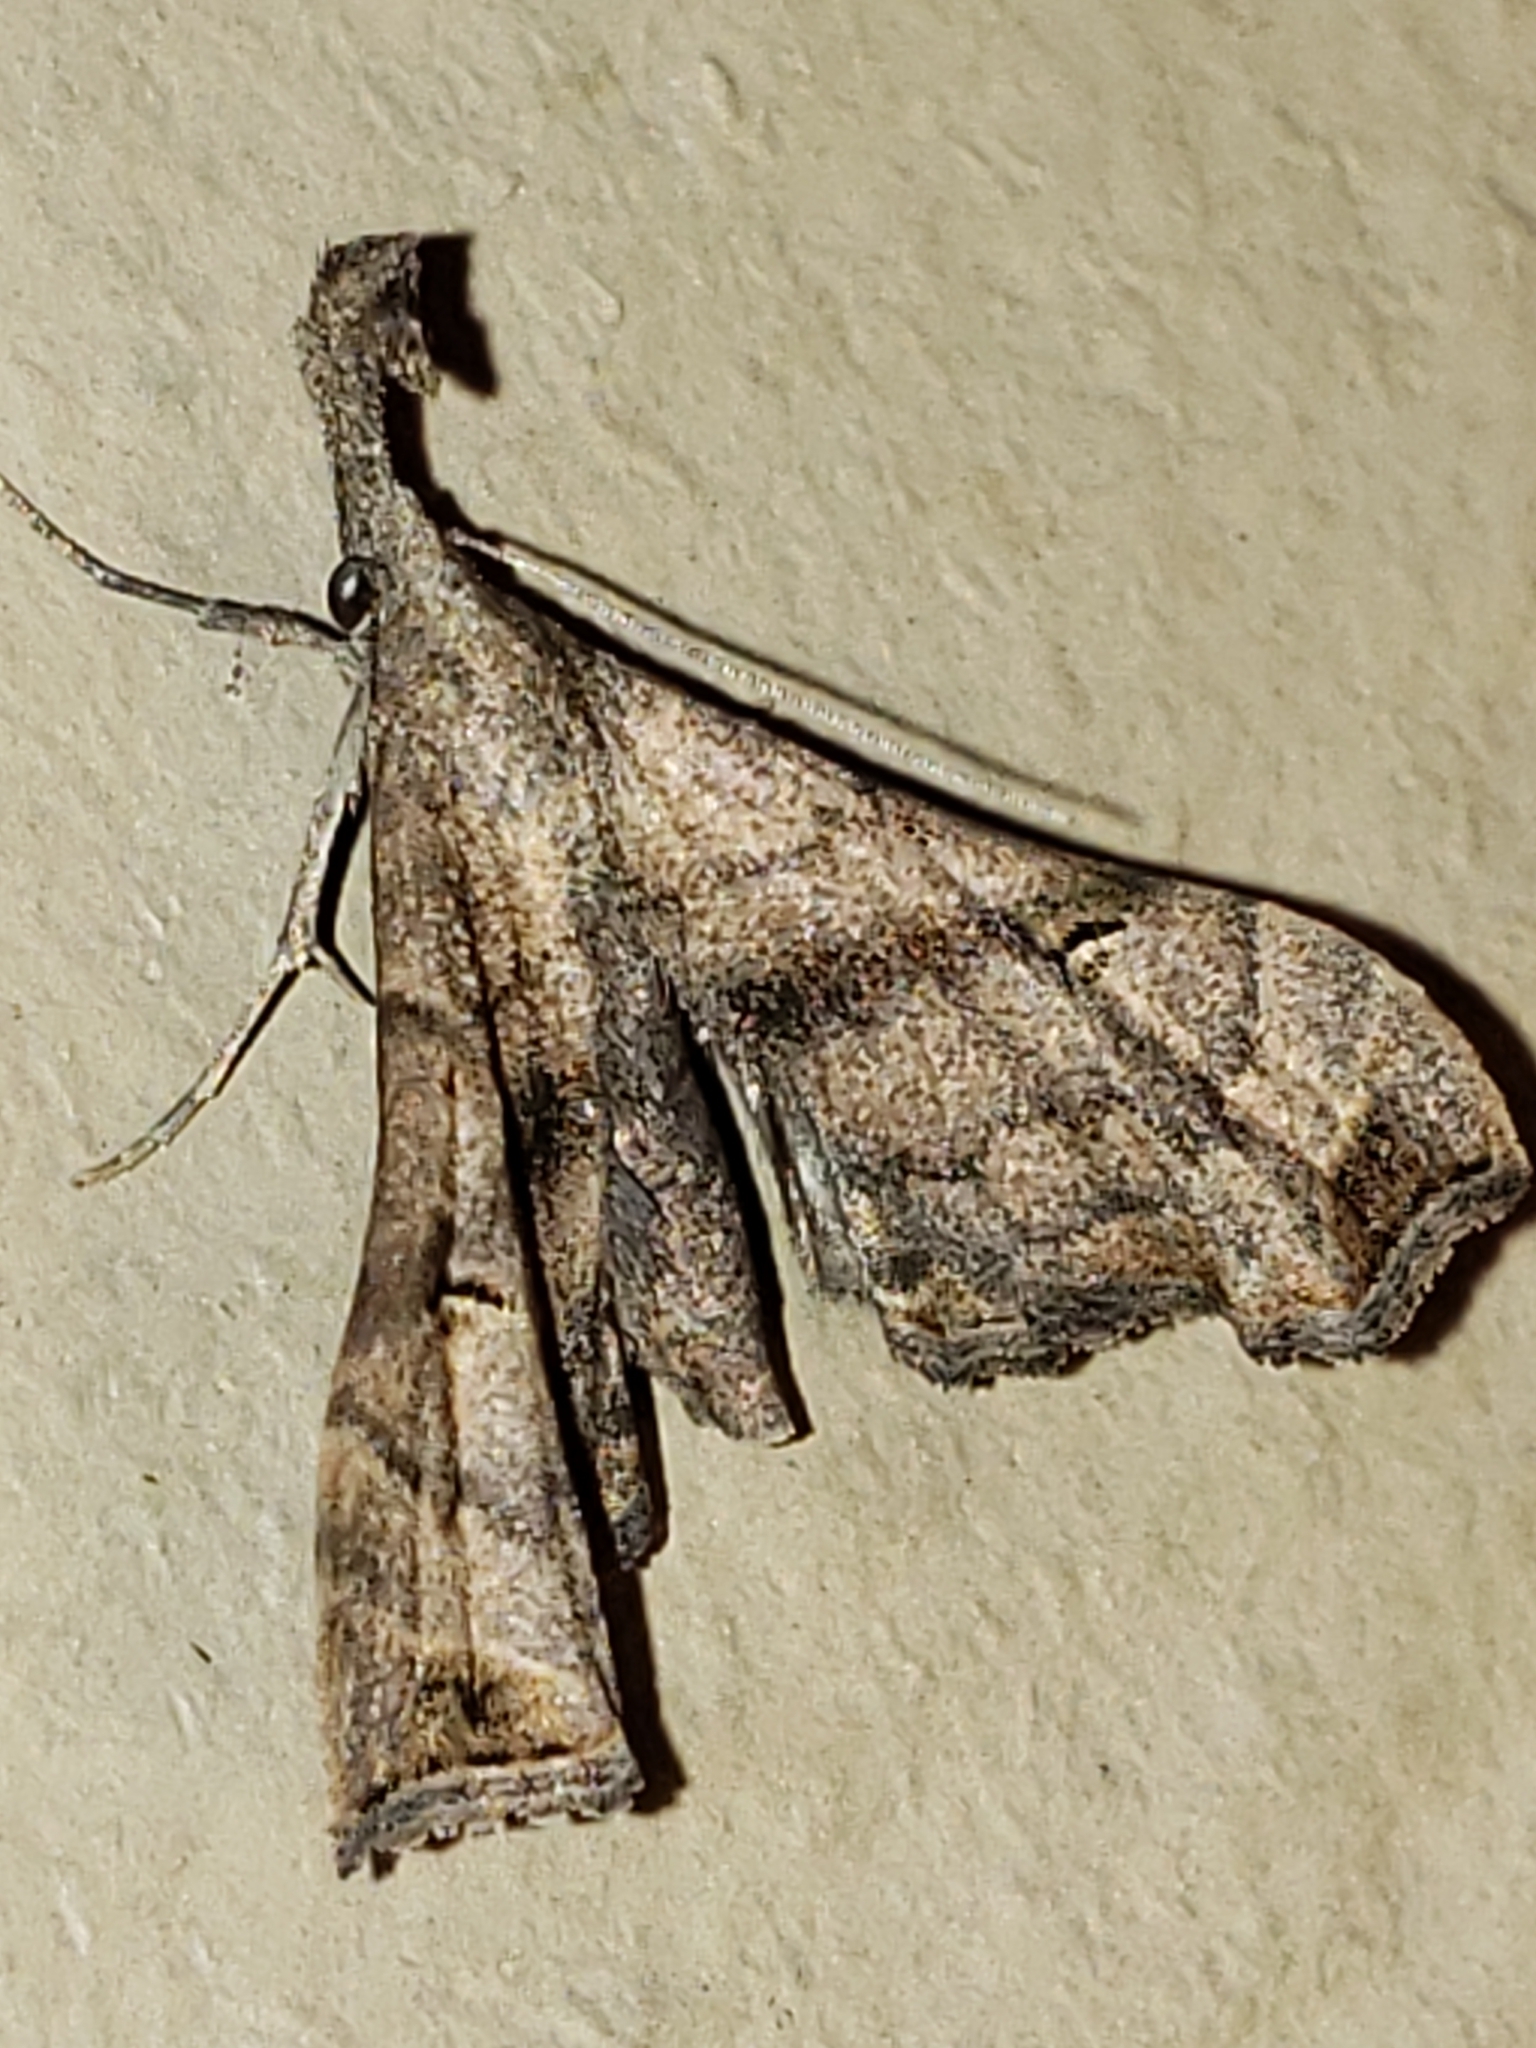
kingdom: Animalia
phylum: Arthropoda
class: Insecta
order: Lepidoptera
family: Erebidae
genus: Palthis
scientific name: Palthis asopialis
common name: Faint-spotted palthis moth
